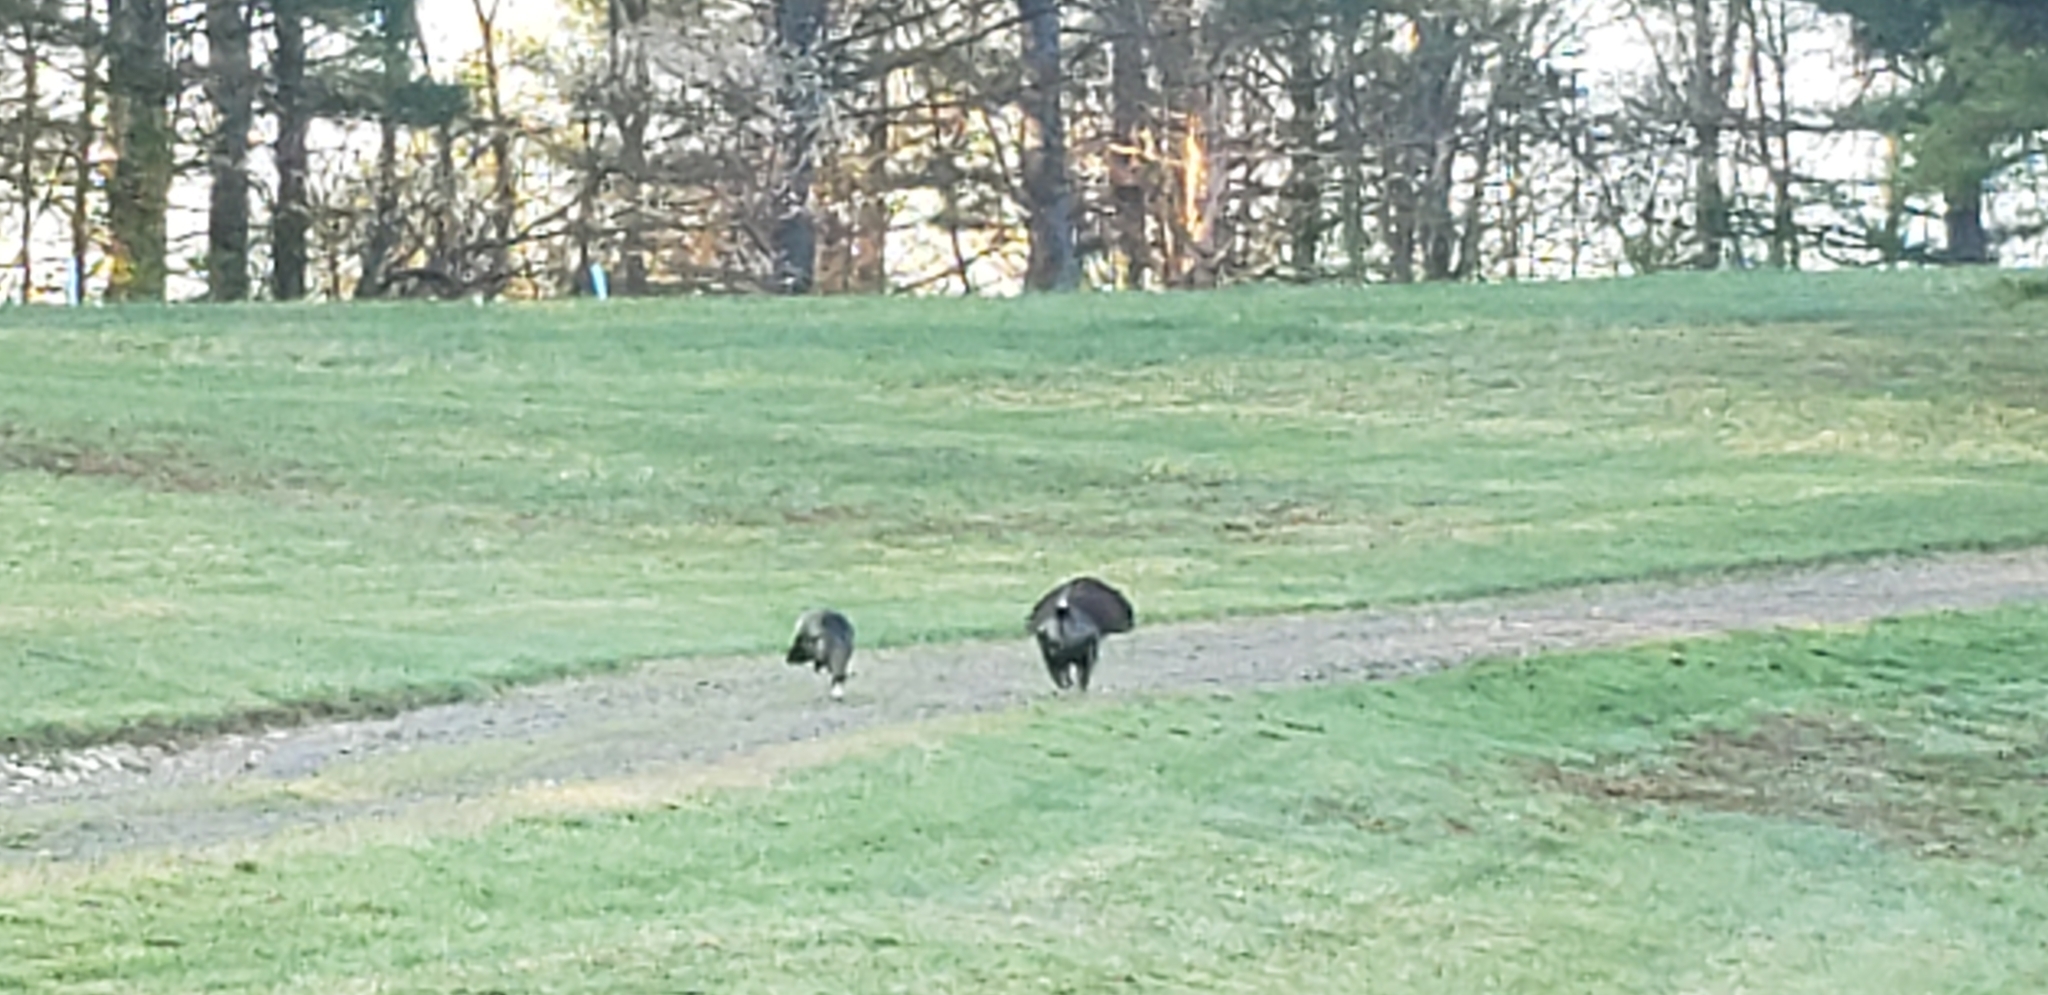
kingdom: Animalia
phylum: Chordata
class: Aves
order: Galliformes
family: Phasianidae
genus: Meleagris
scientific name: Meleagris gallopavo
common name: Wild turkey
